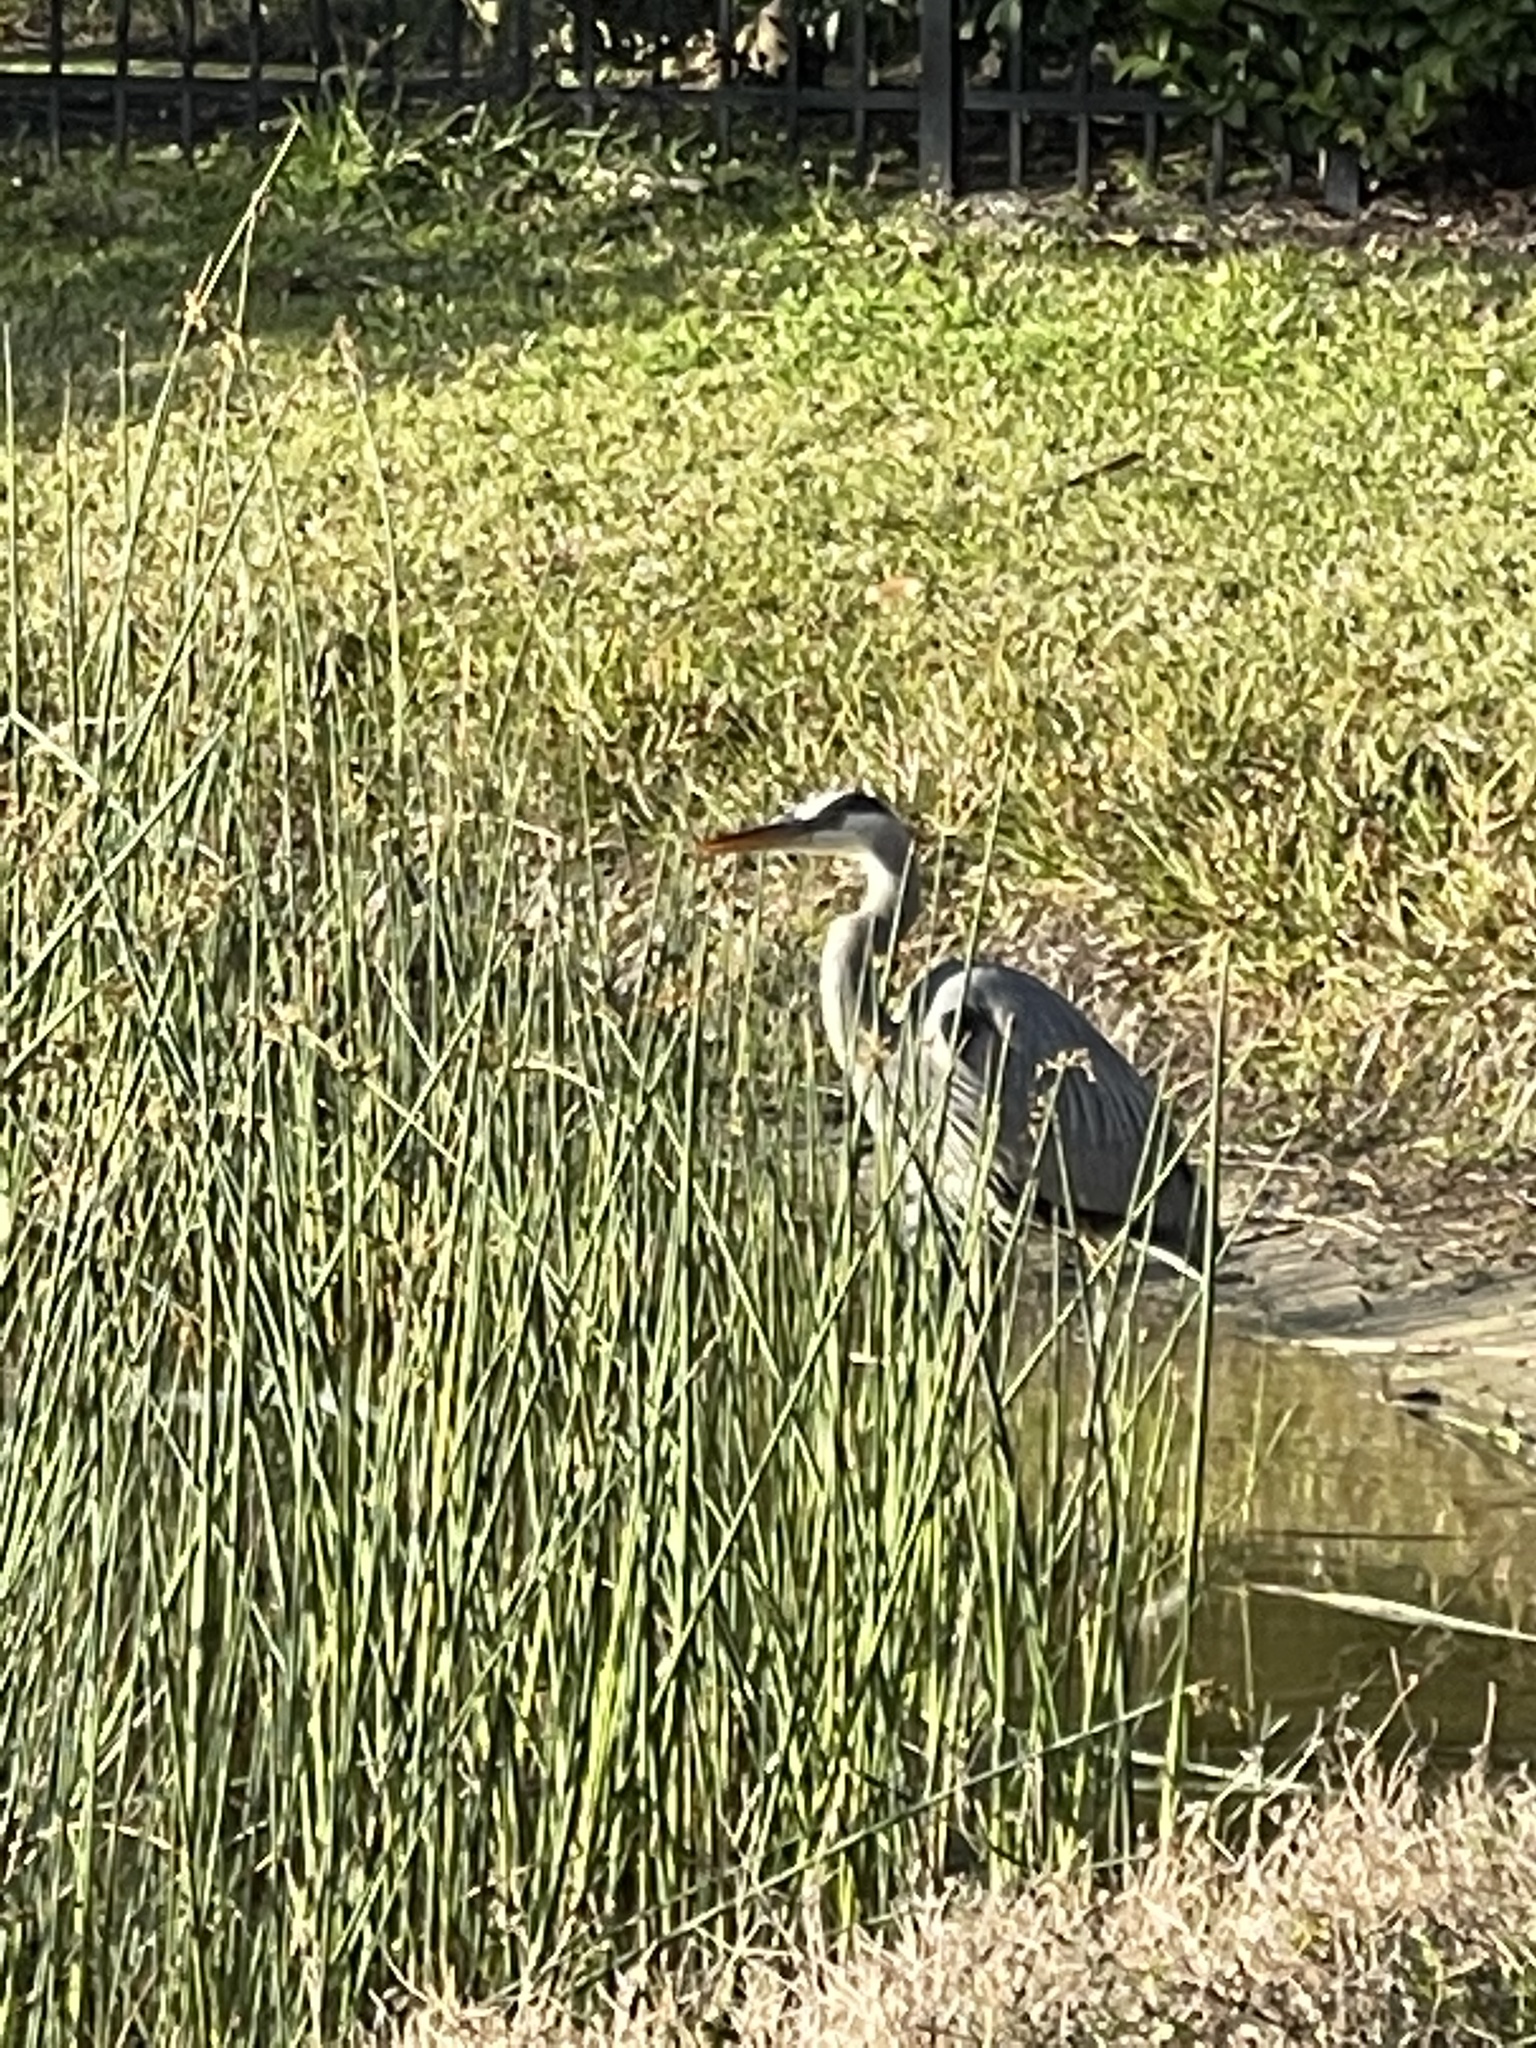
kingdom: Animalia
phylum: Chordata
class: Aves
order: Pelecaniformes
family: Ardeidae
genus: Ardea
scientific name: Ardea herodias
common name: Great blue heron
